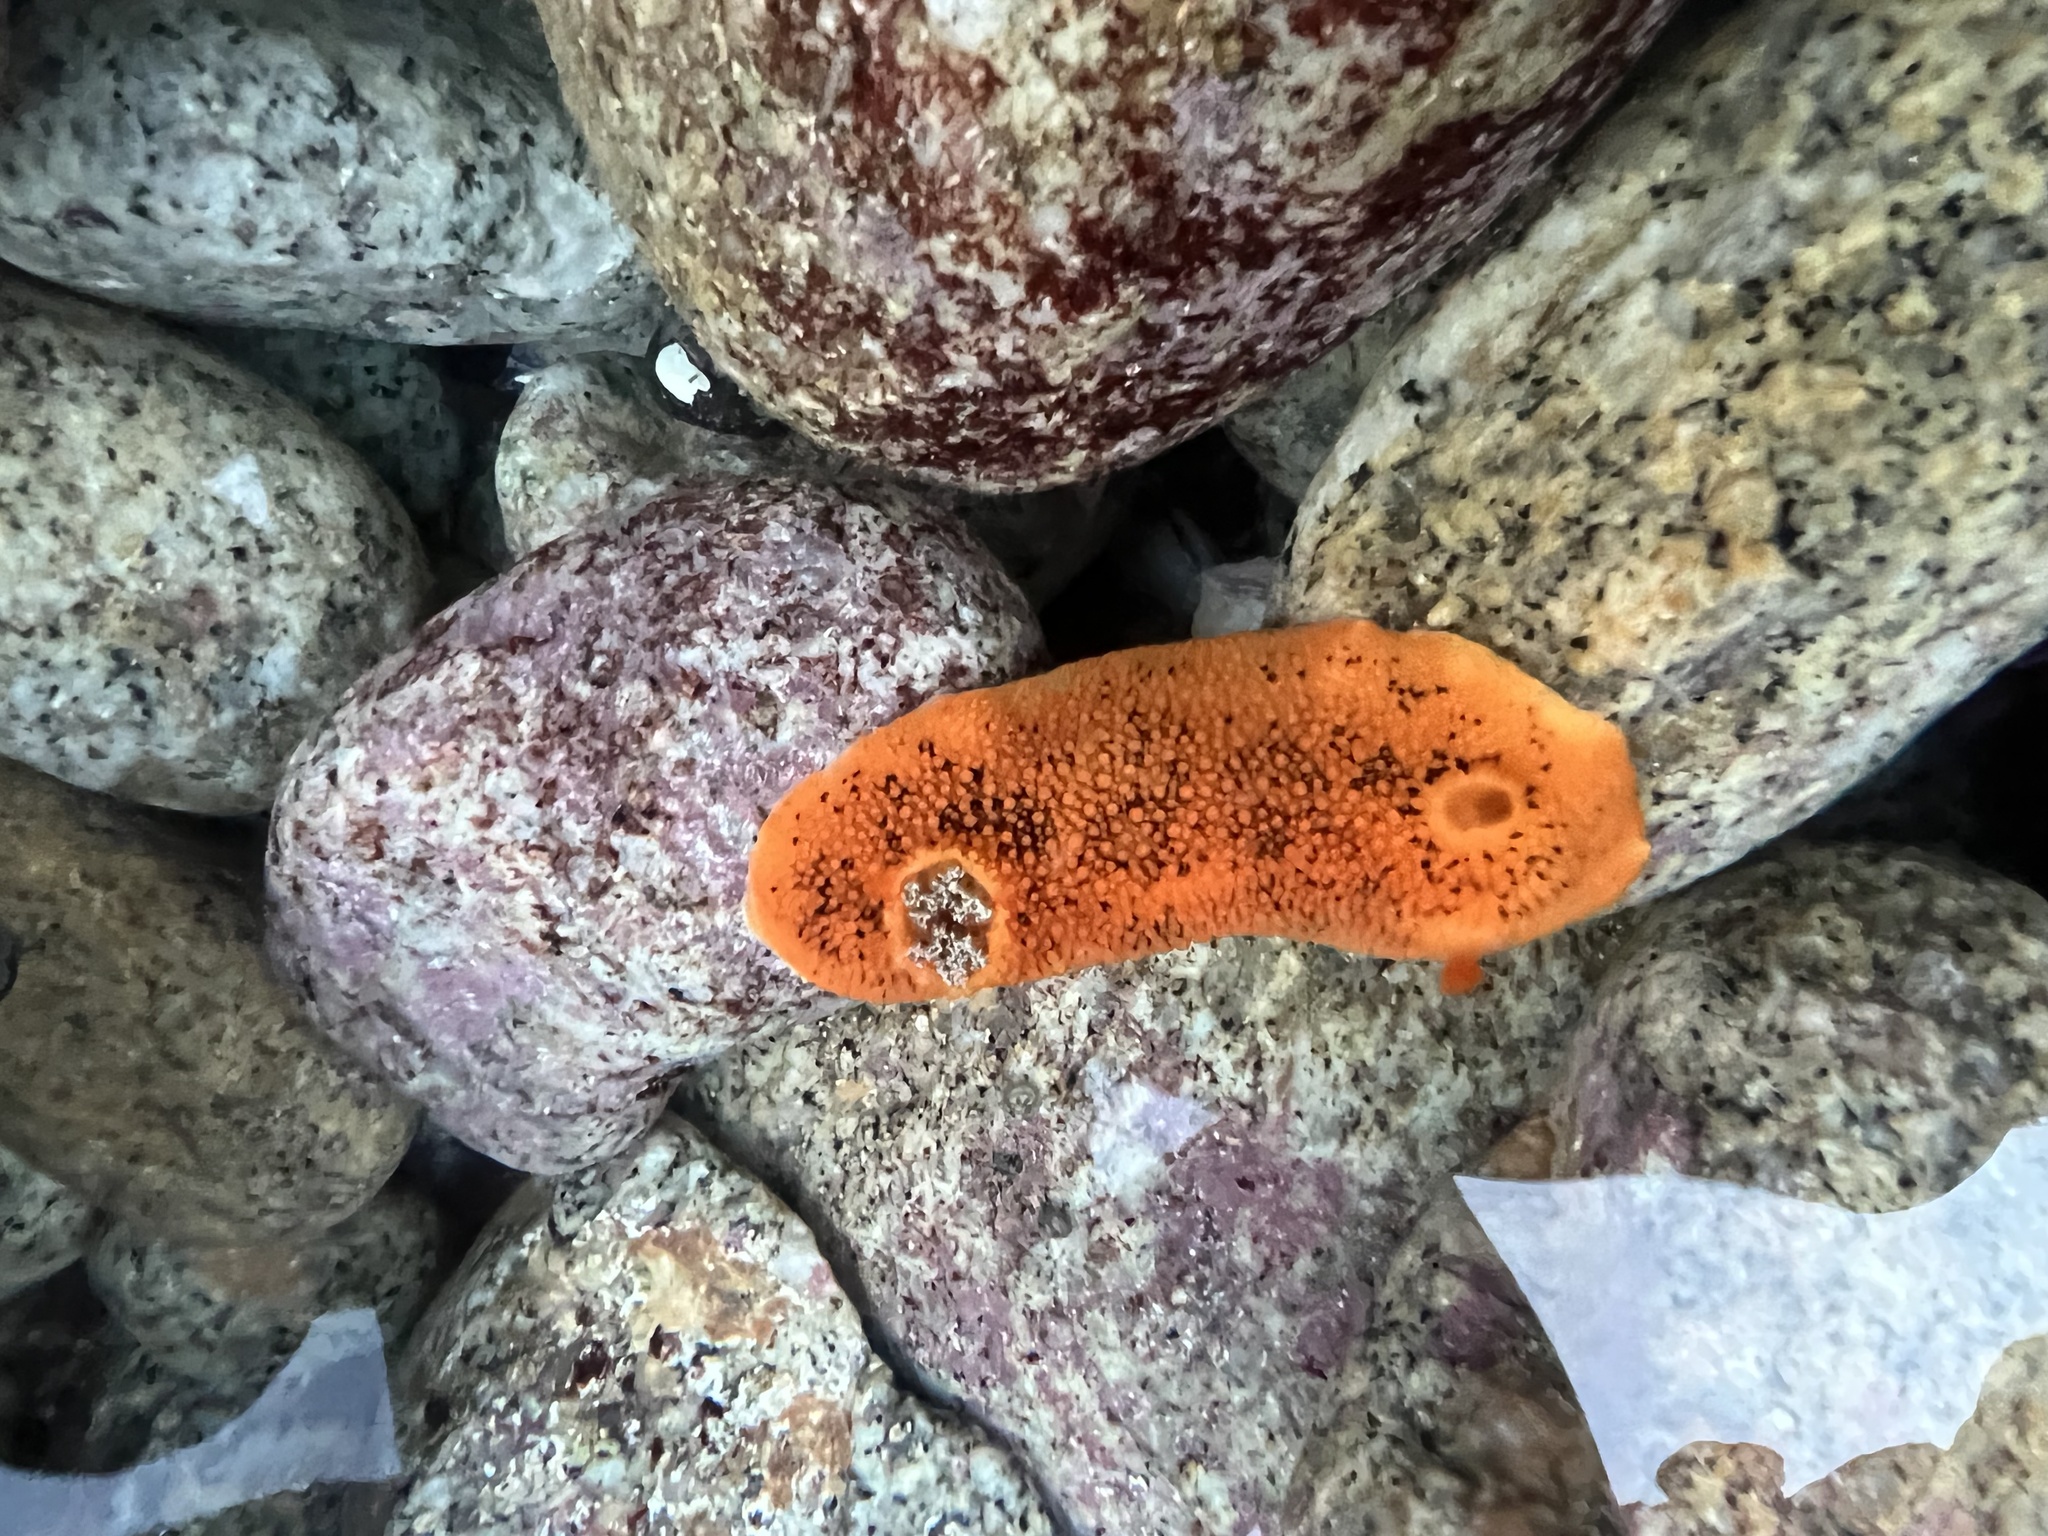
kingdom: Animalia
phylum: Mollusca
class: Gastropoda
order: Nudibranchia
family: Discodorididae
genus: Peltodoris
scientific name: Peltodoris nobilis
